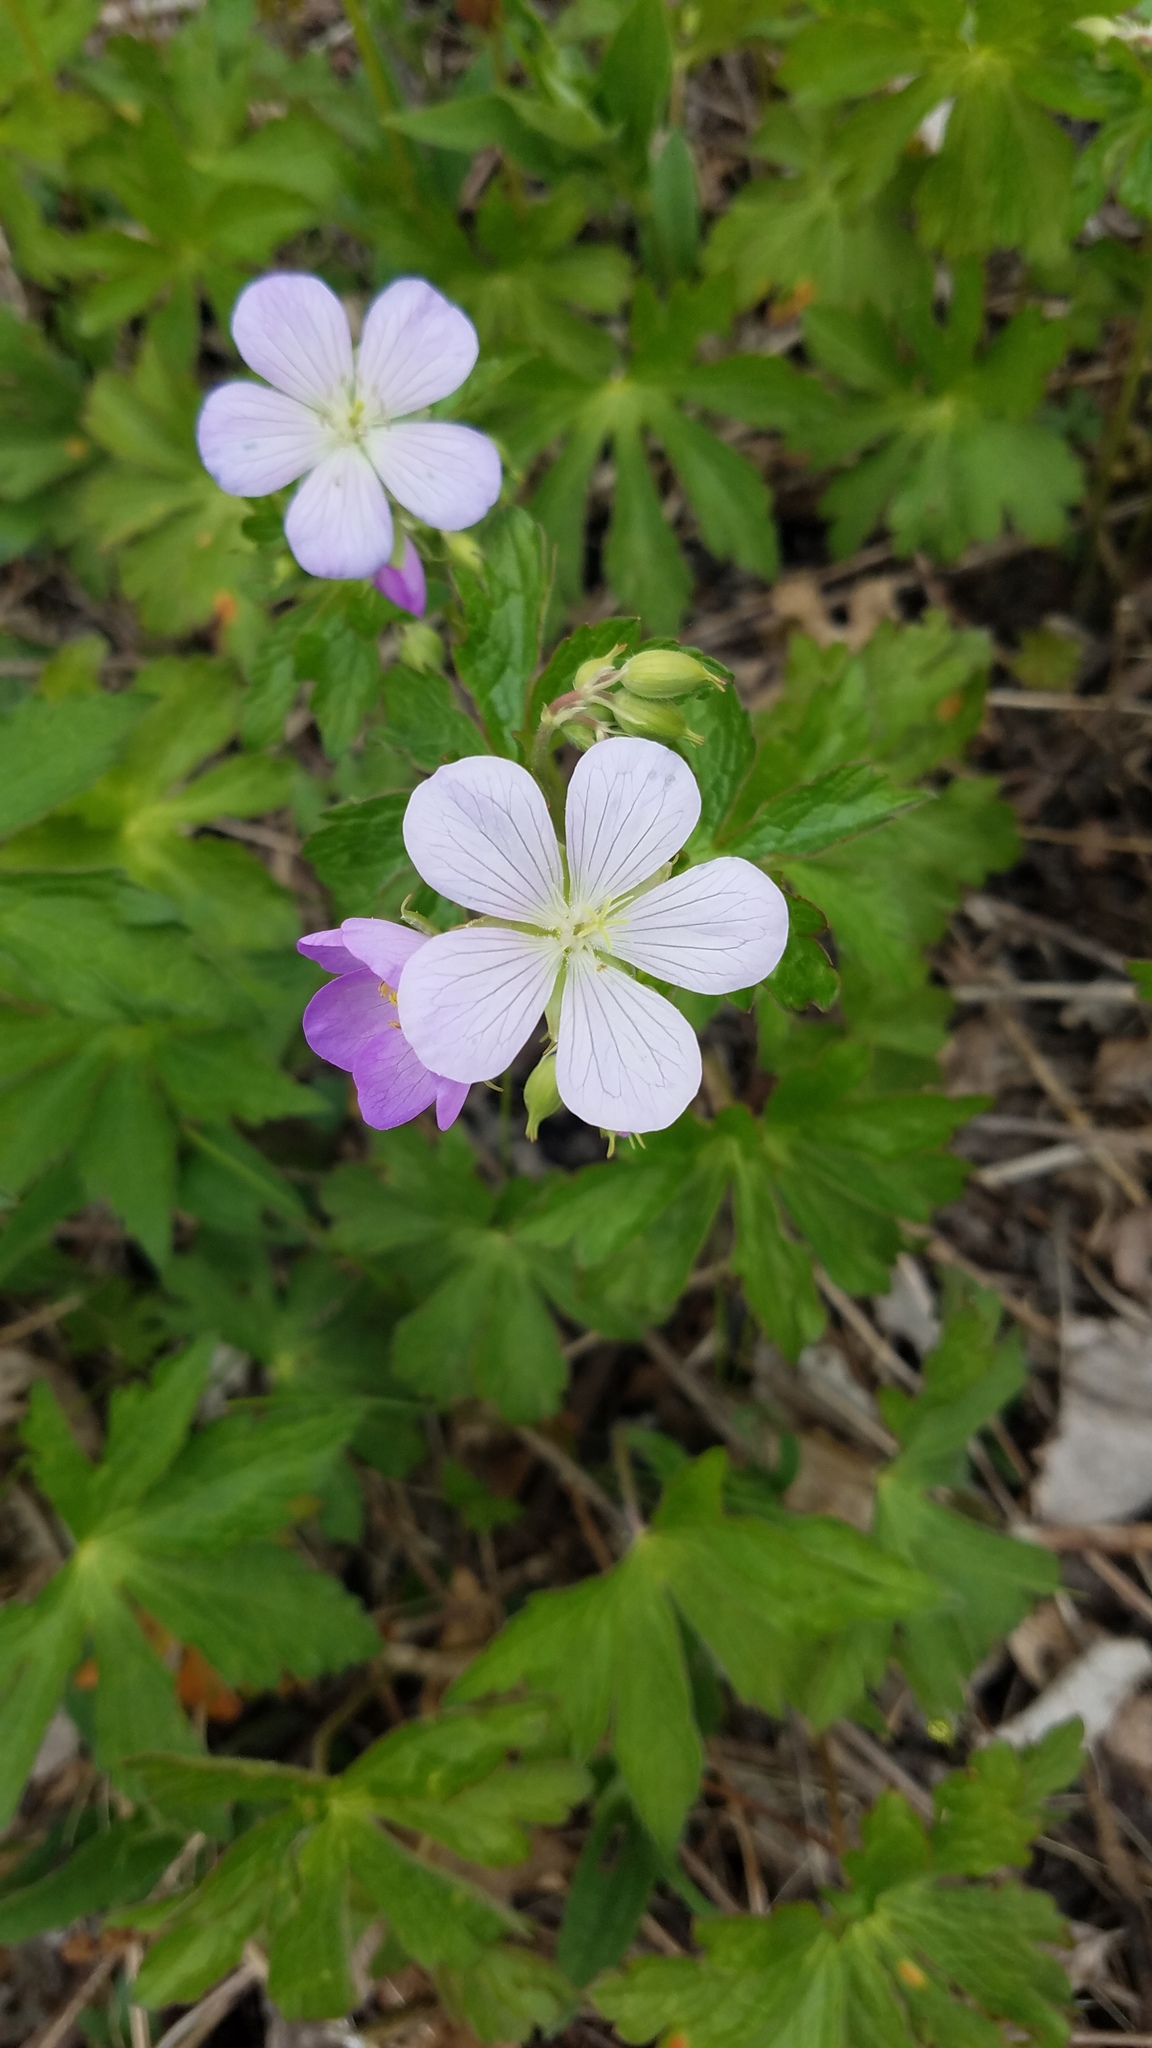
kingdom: Plantae
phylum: Tracheophyta
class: Magnoliopsida
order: Geraniales
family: Geraniaceae
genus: Geranium
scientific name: Geranium maculatum
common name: Spotted geranium
